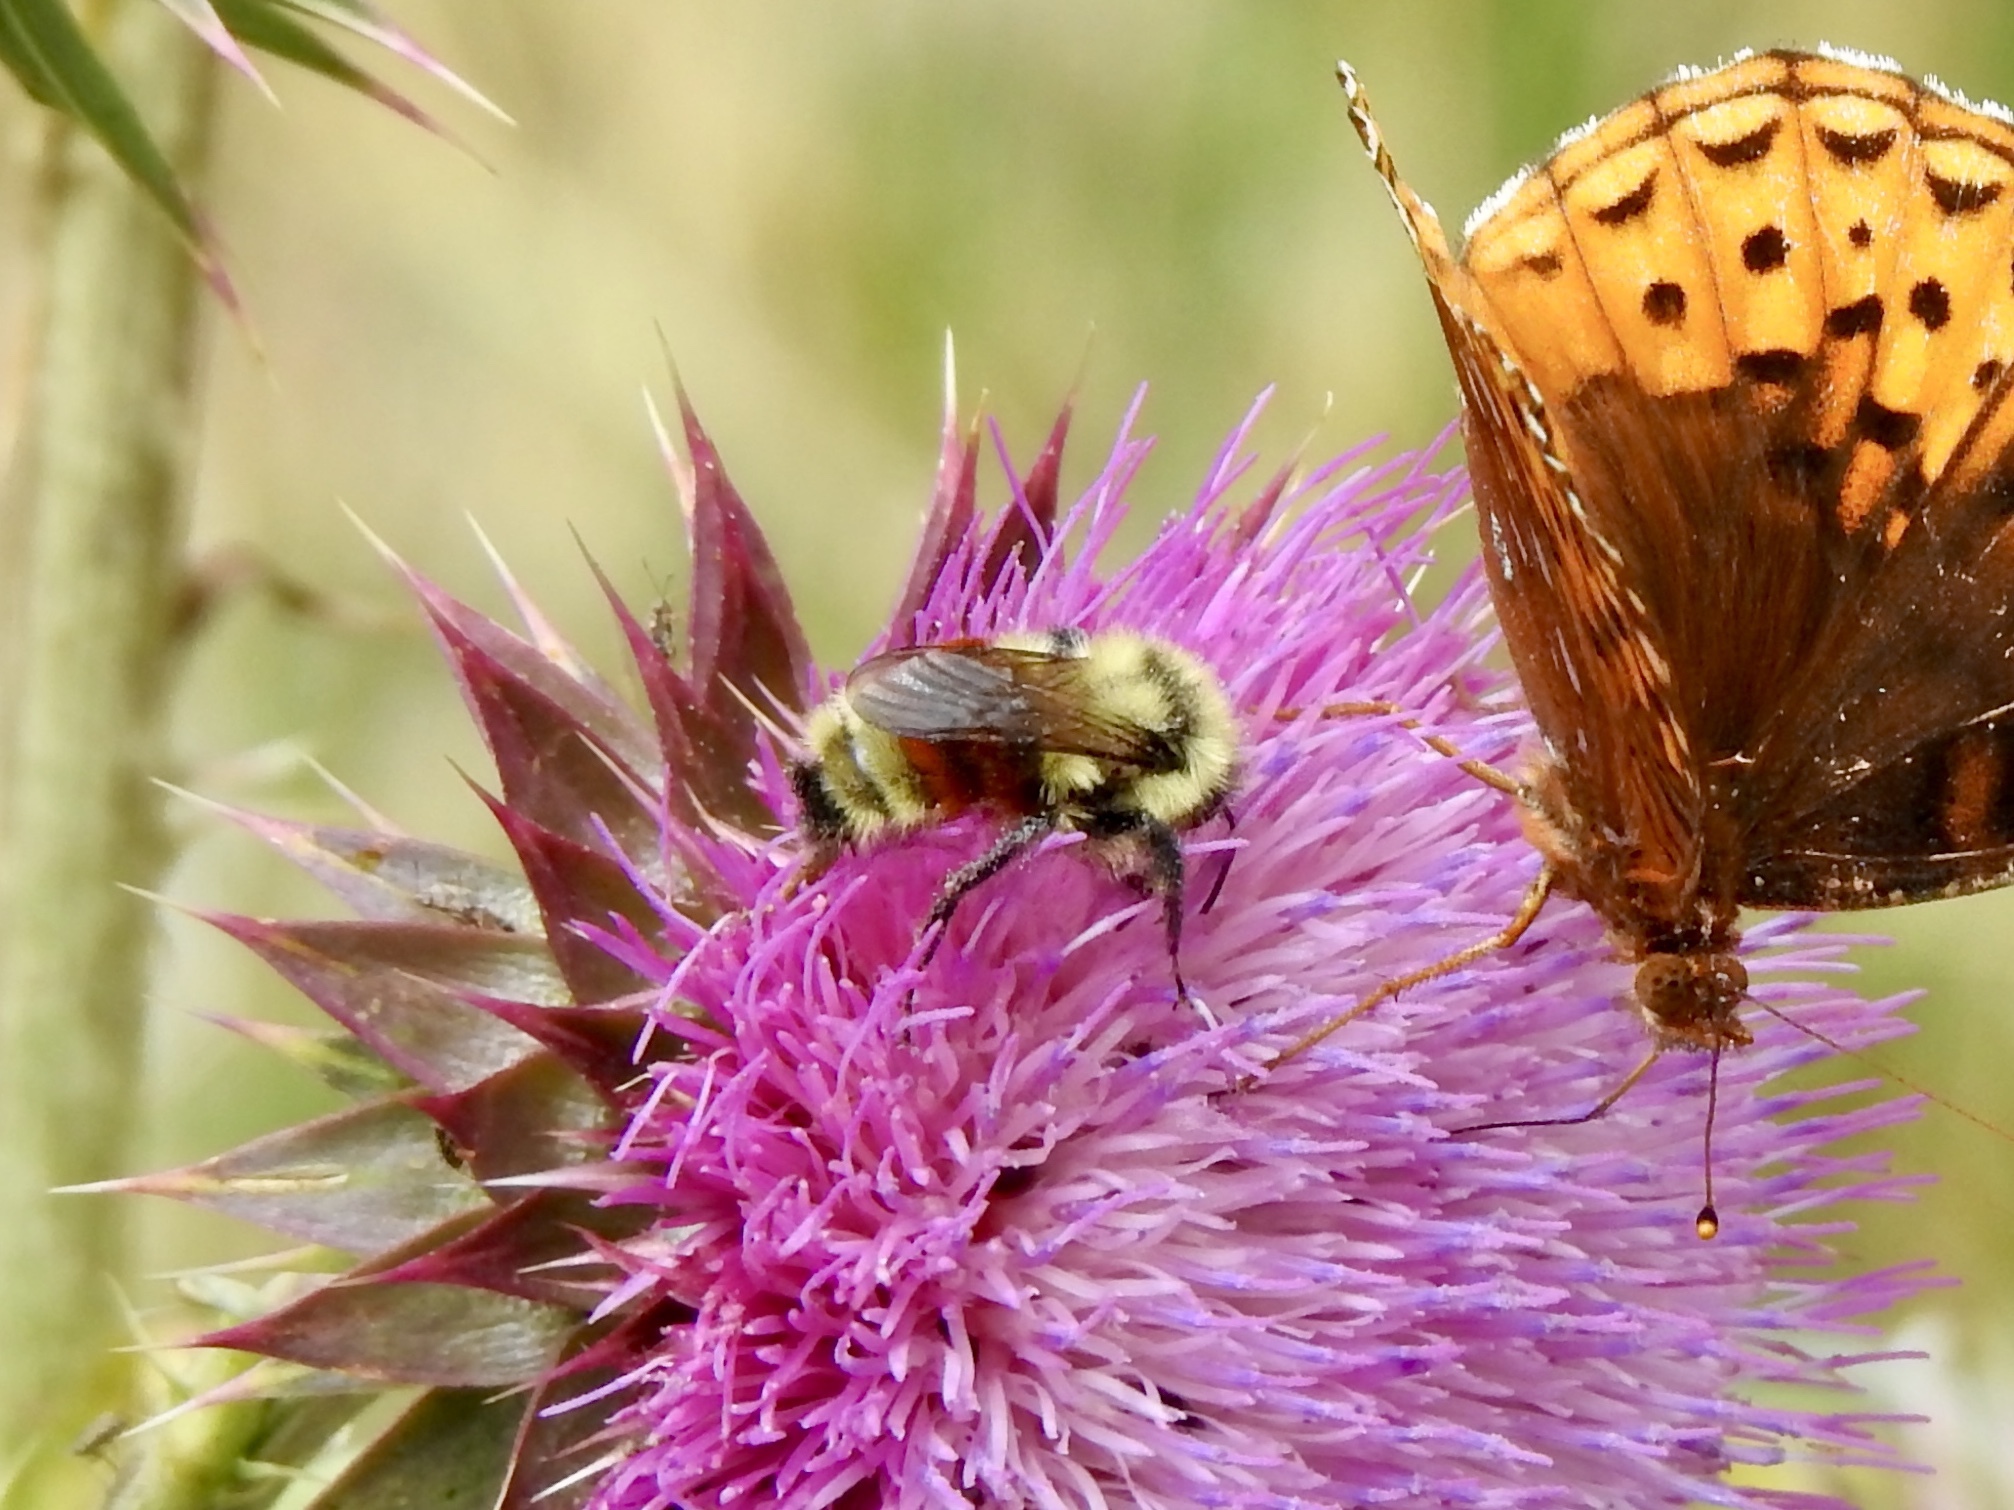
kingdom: Animalia
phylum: Arthropoda
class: Insecta
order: Hymenoptera
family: Apidae
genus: Bombus
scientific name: Bombus huntii
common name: Hunt bumble bee
